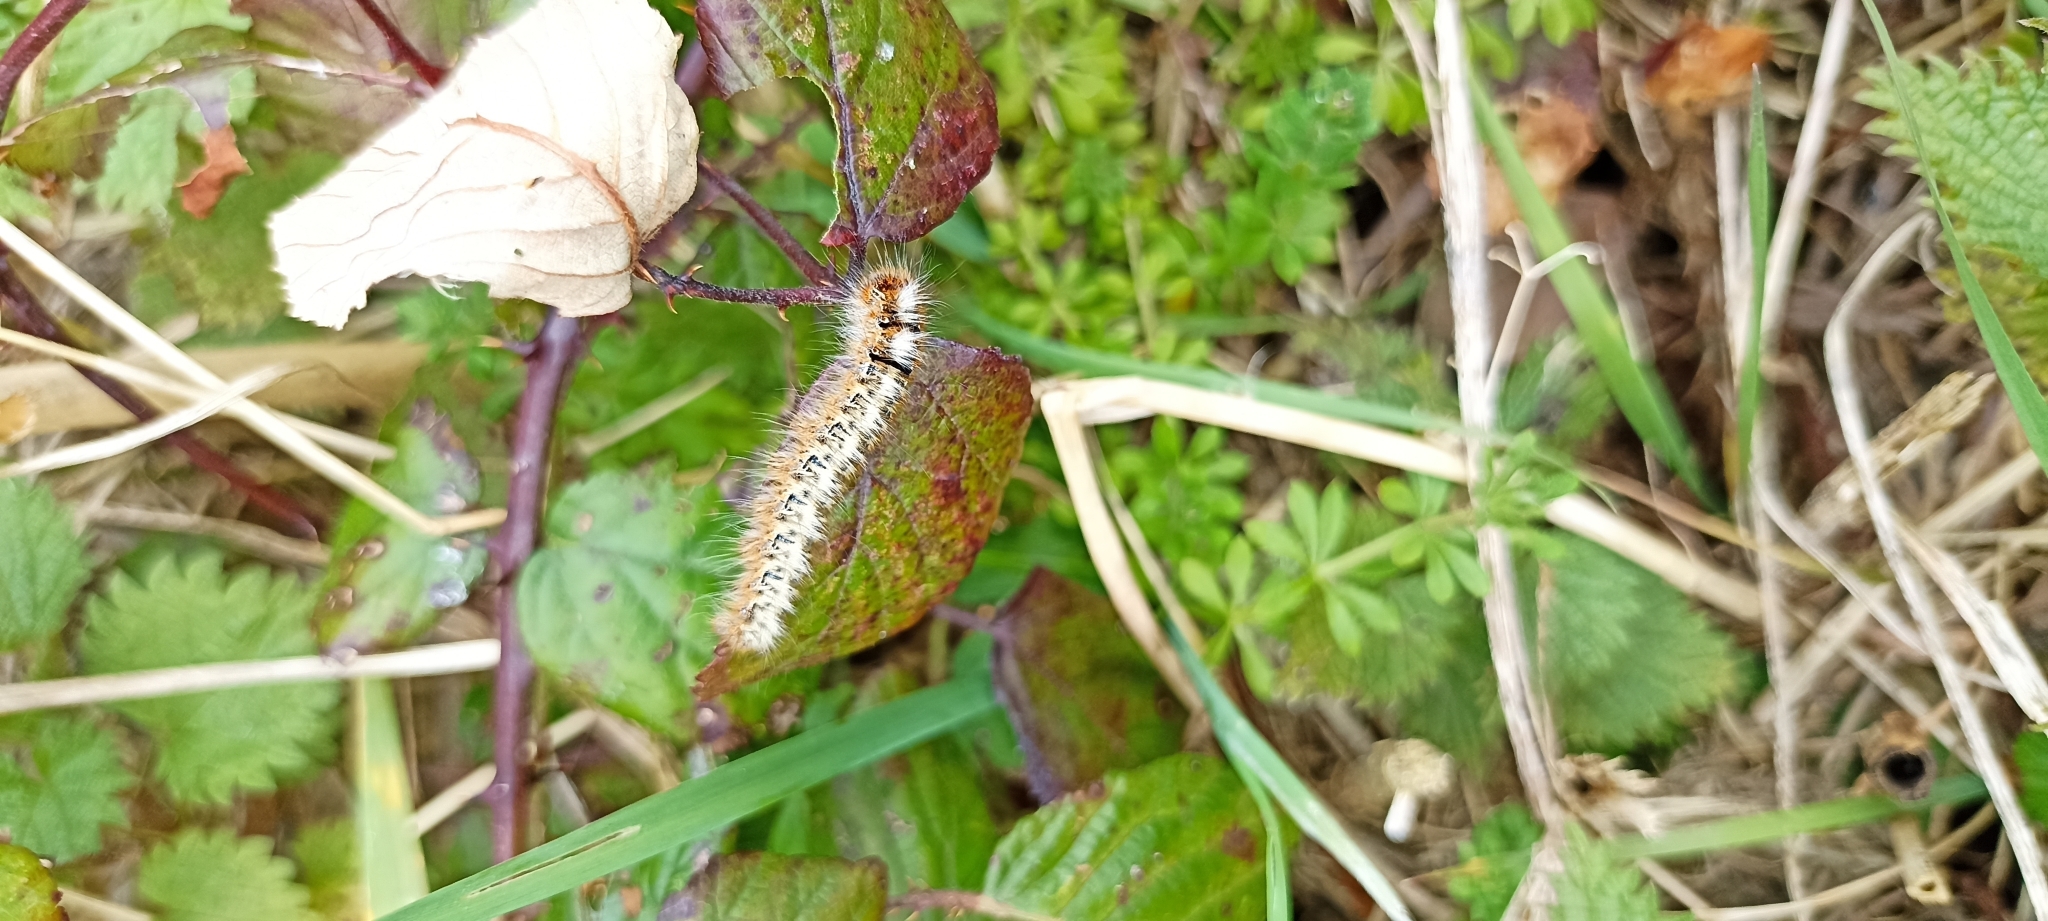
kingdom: Animalia
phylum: Arthropoda
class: Insecta
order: Lepidoptera
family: Lasiocampidae
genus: Lasiocampa
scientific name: Lasiocampa quercus
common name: Oak eggar
